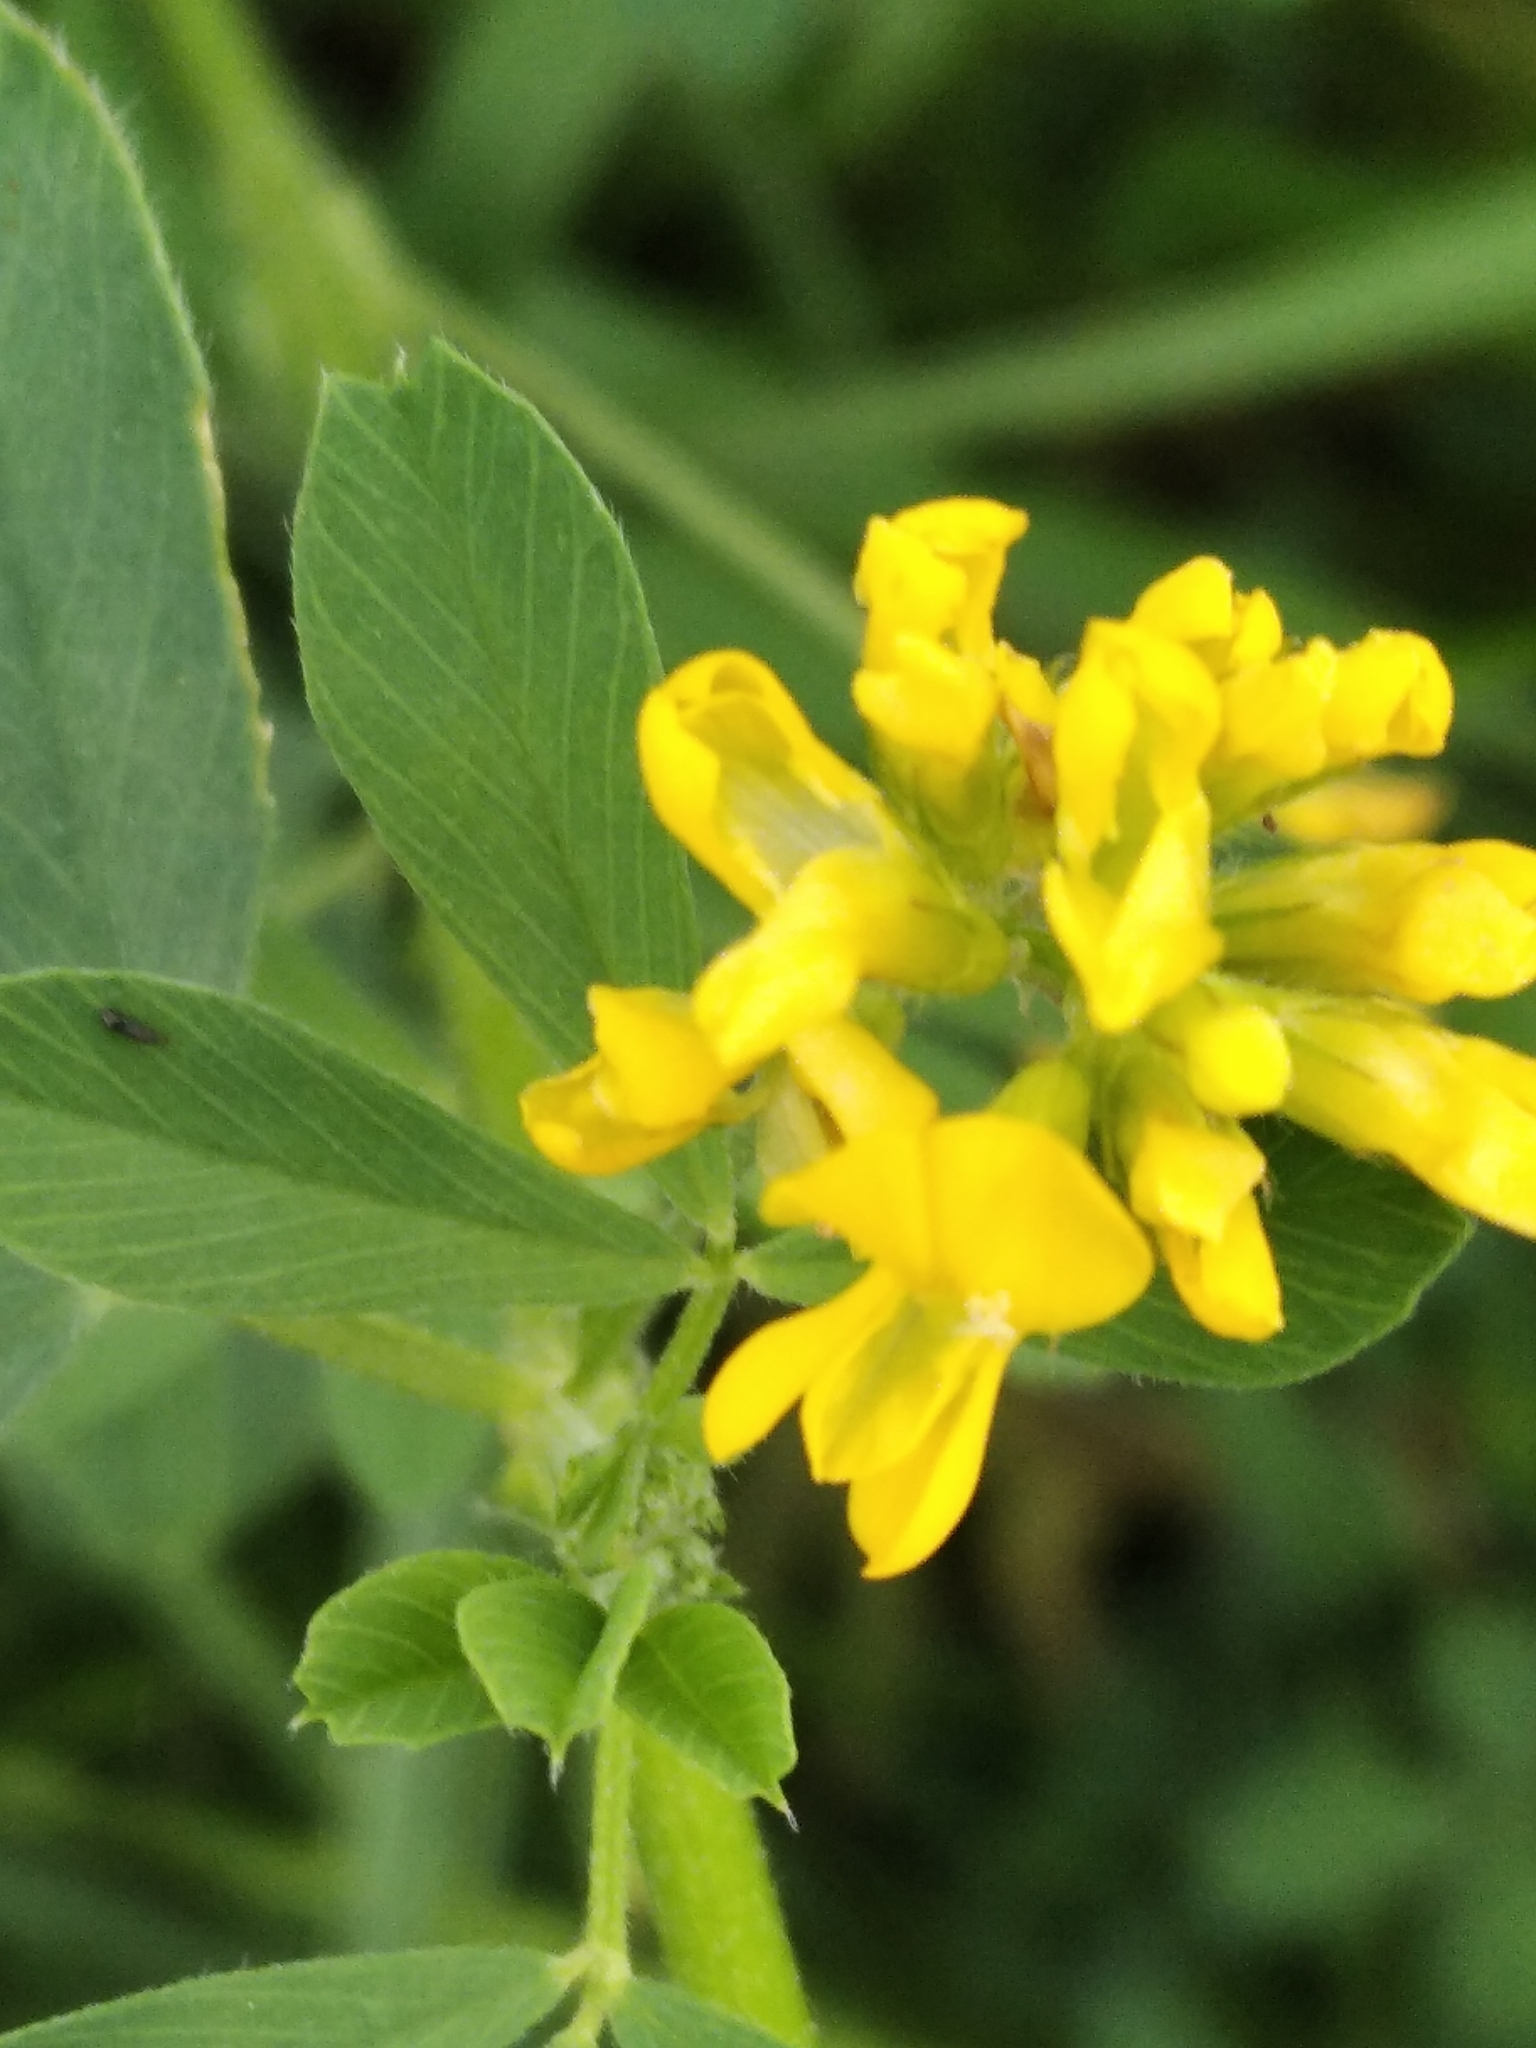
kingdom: Plantae
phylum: Tracheophyta
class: Magnoliopsida
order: Fabales
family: Fabaceae
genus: Medicago
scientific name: Medicago falcata
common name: Sickle medick
